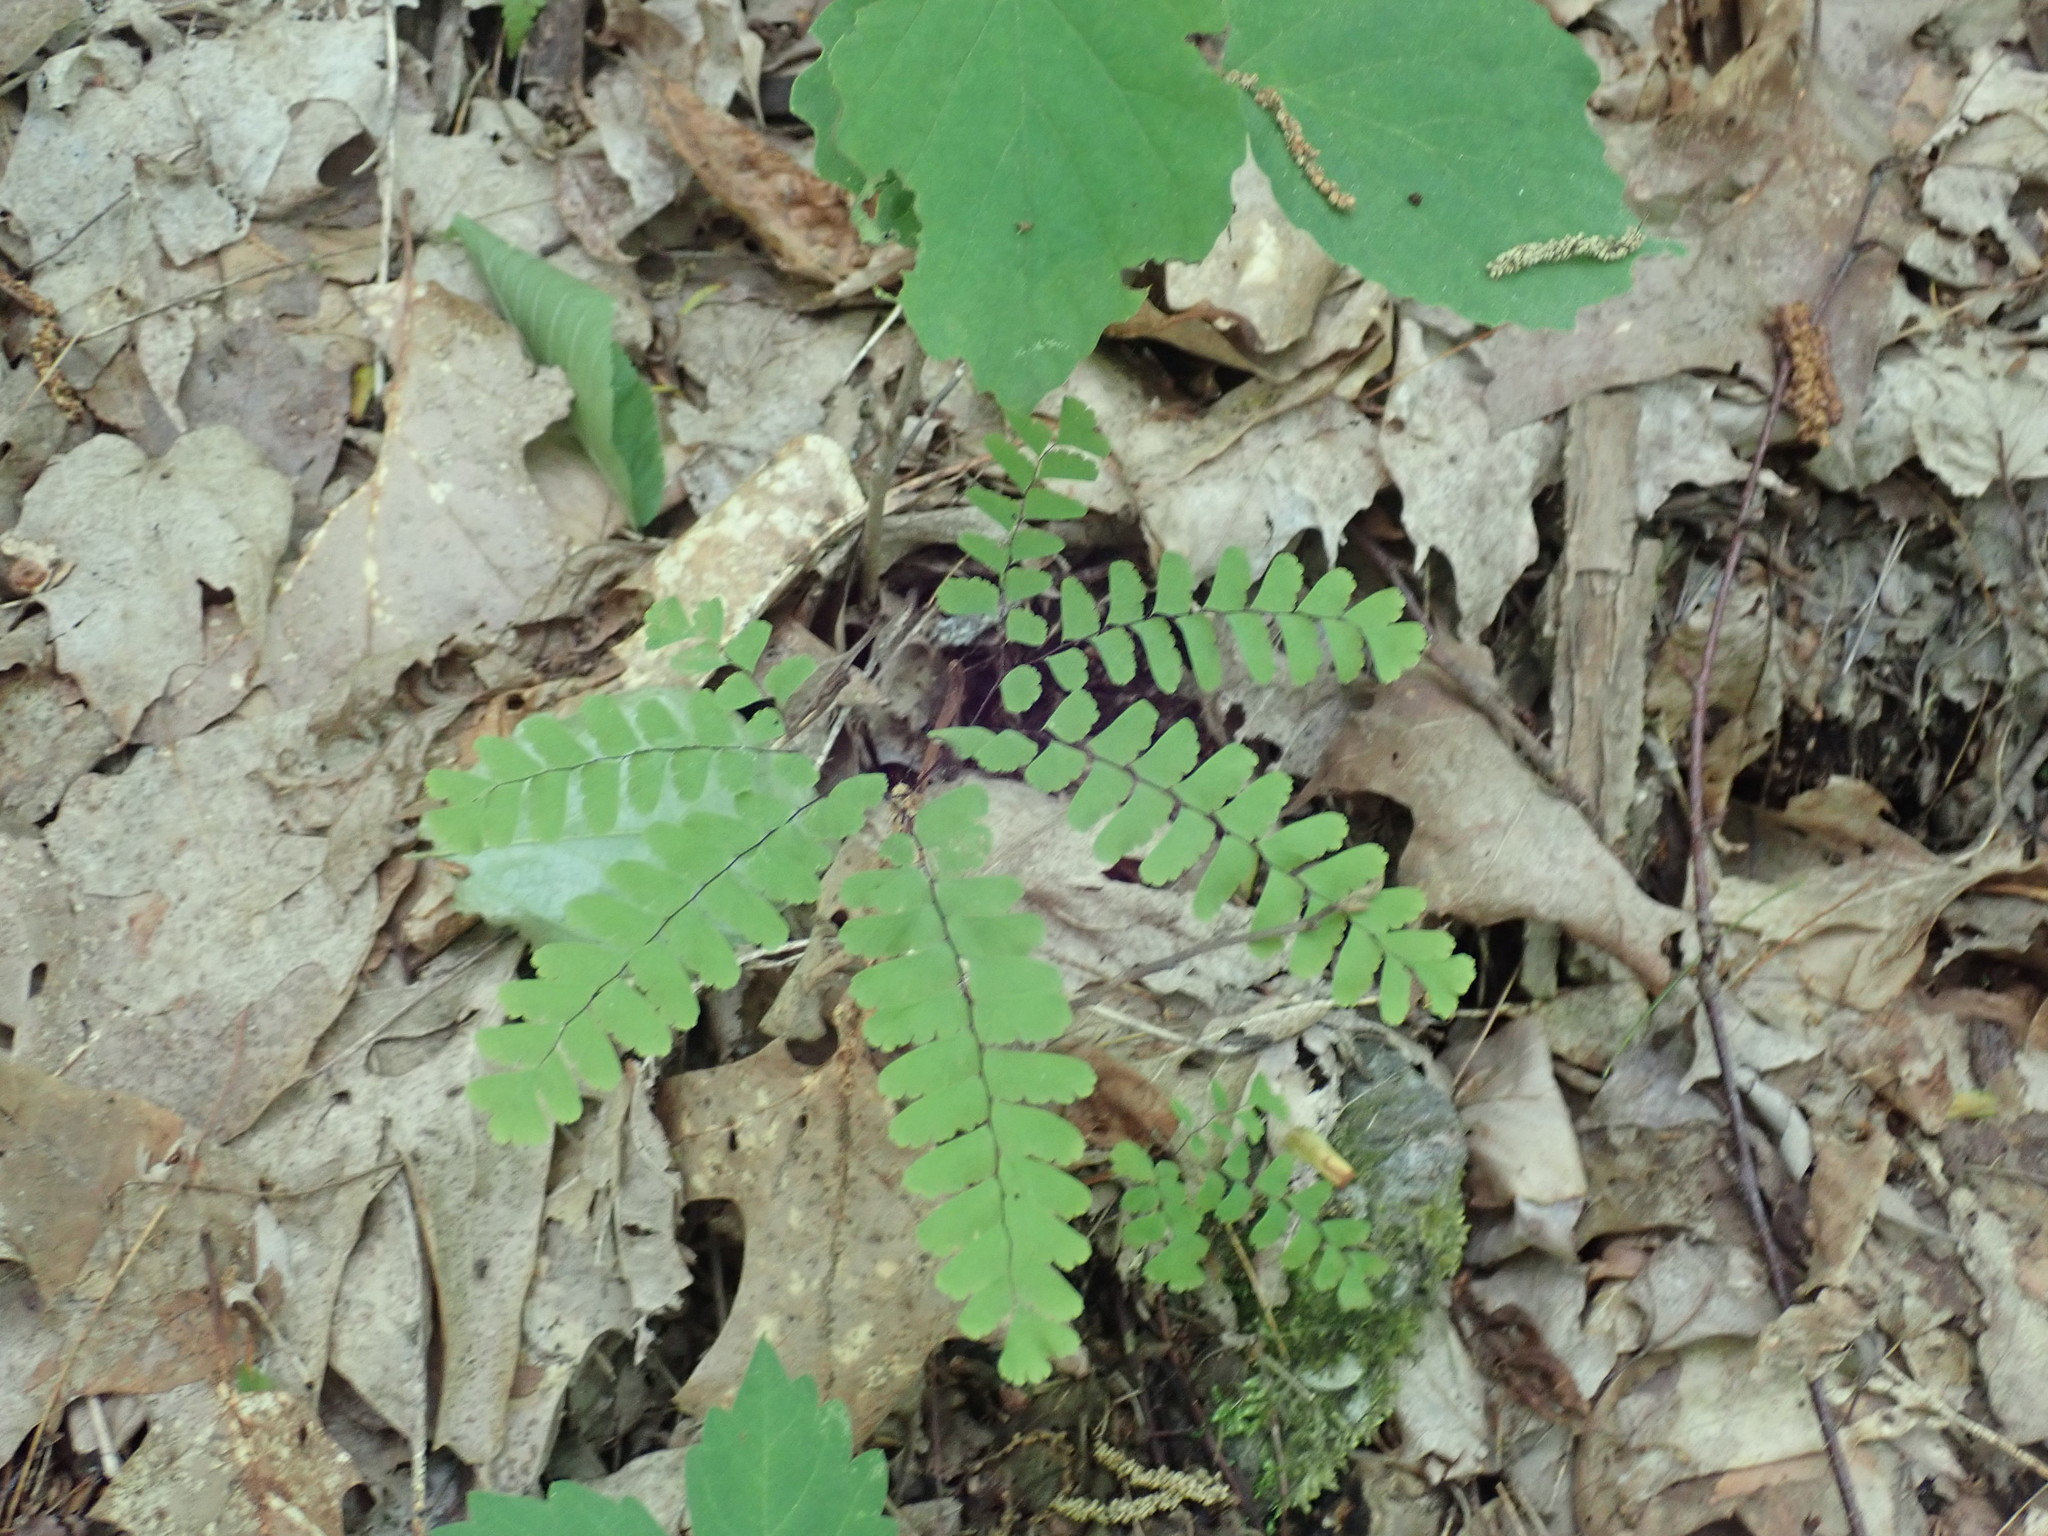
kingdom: Plantae
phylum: Tracheophyta
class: Polypodiopsida
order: Polypodiales
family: Pteridaceae
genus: Adiantum
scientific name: Adiantum pedatum
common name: Five-finger fern
